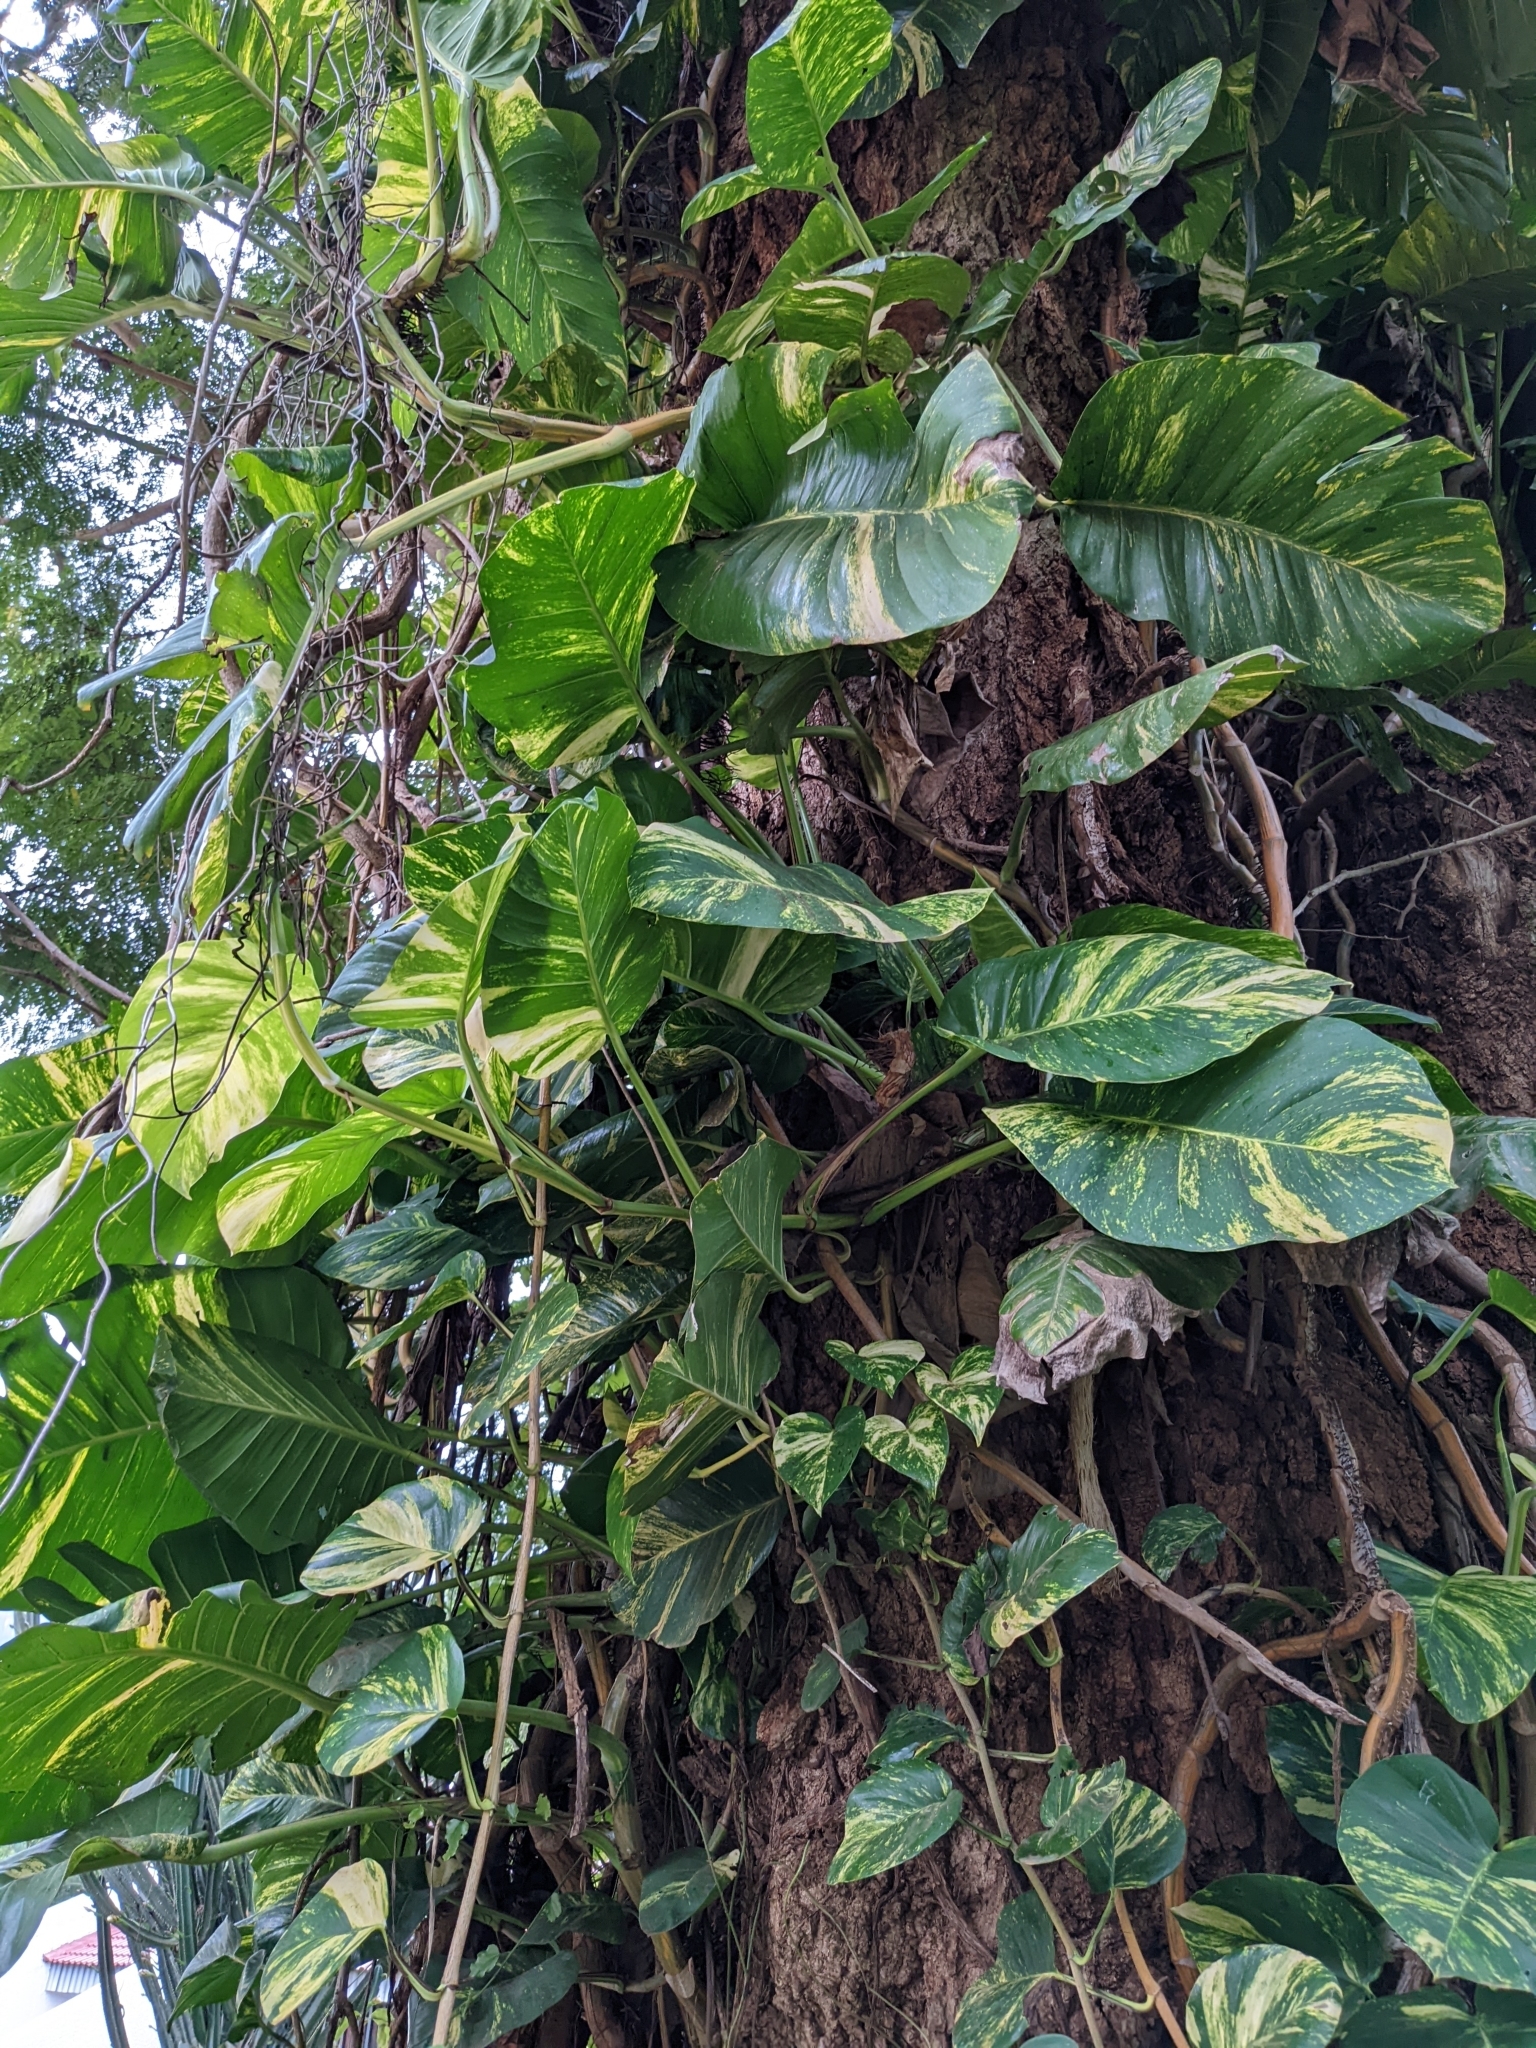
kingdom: Plantae
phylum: Tracheophyta
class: Liliopsida
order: Alismatales
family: Araceae
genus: Epipremnum
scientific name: Epipremnum aureum
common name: Golden hunter's-robe
